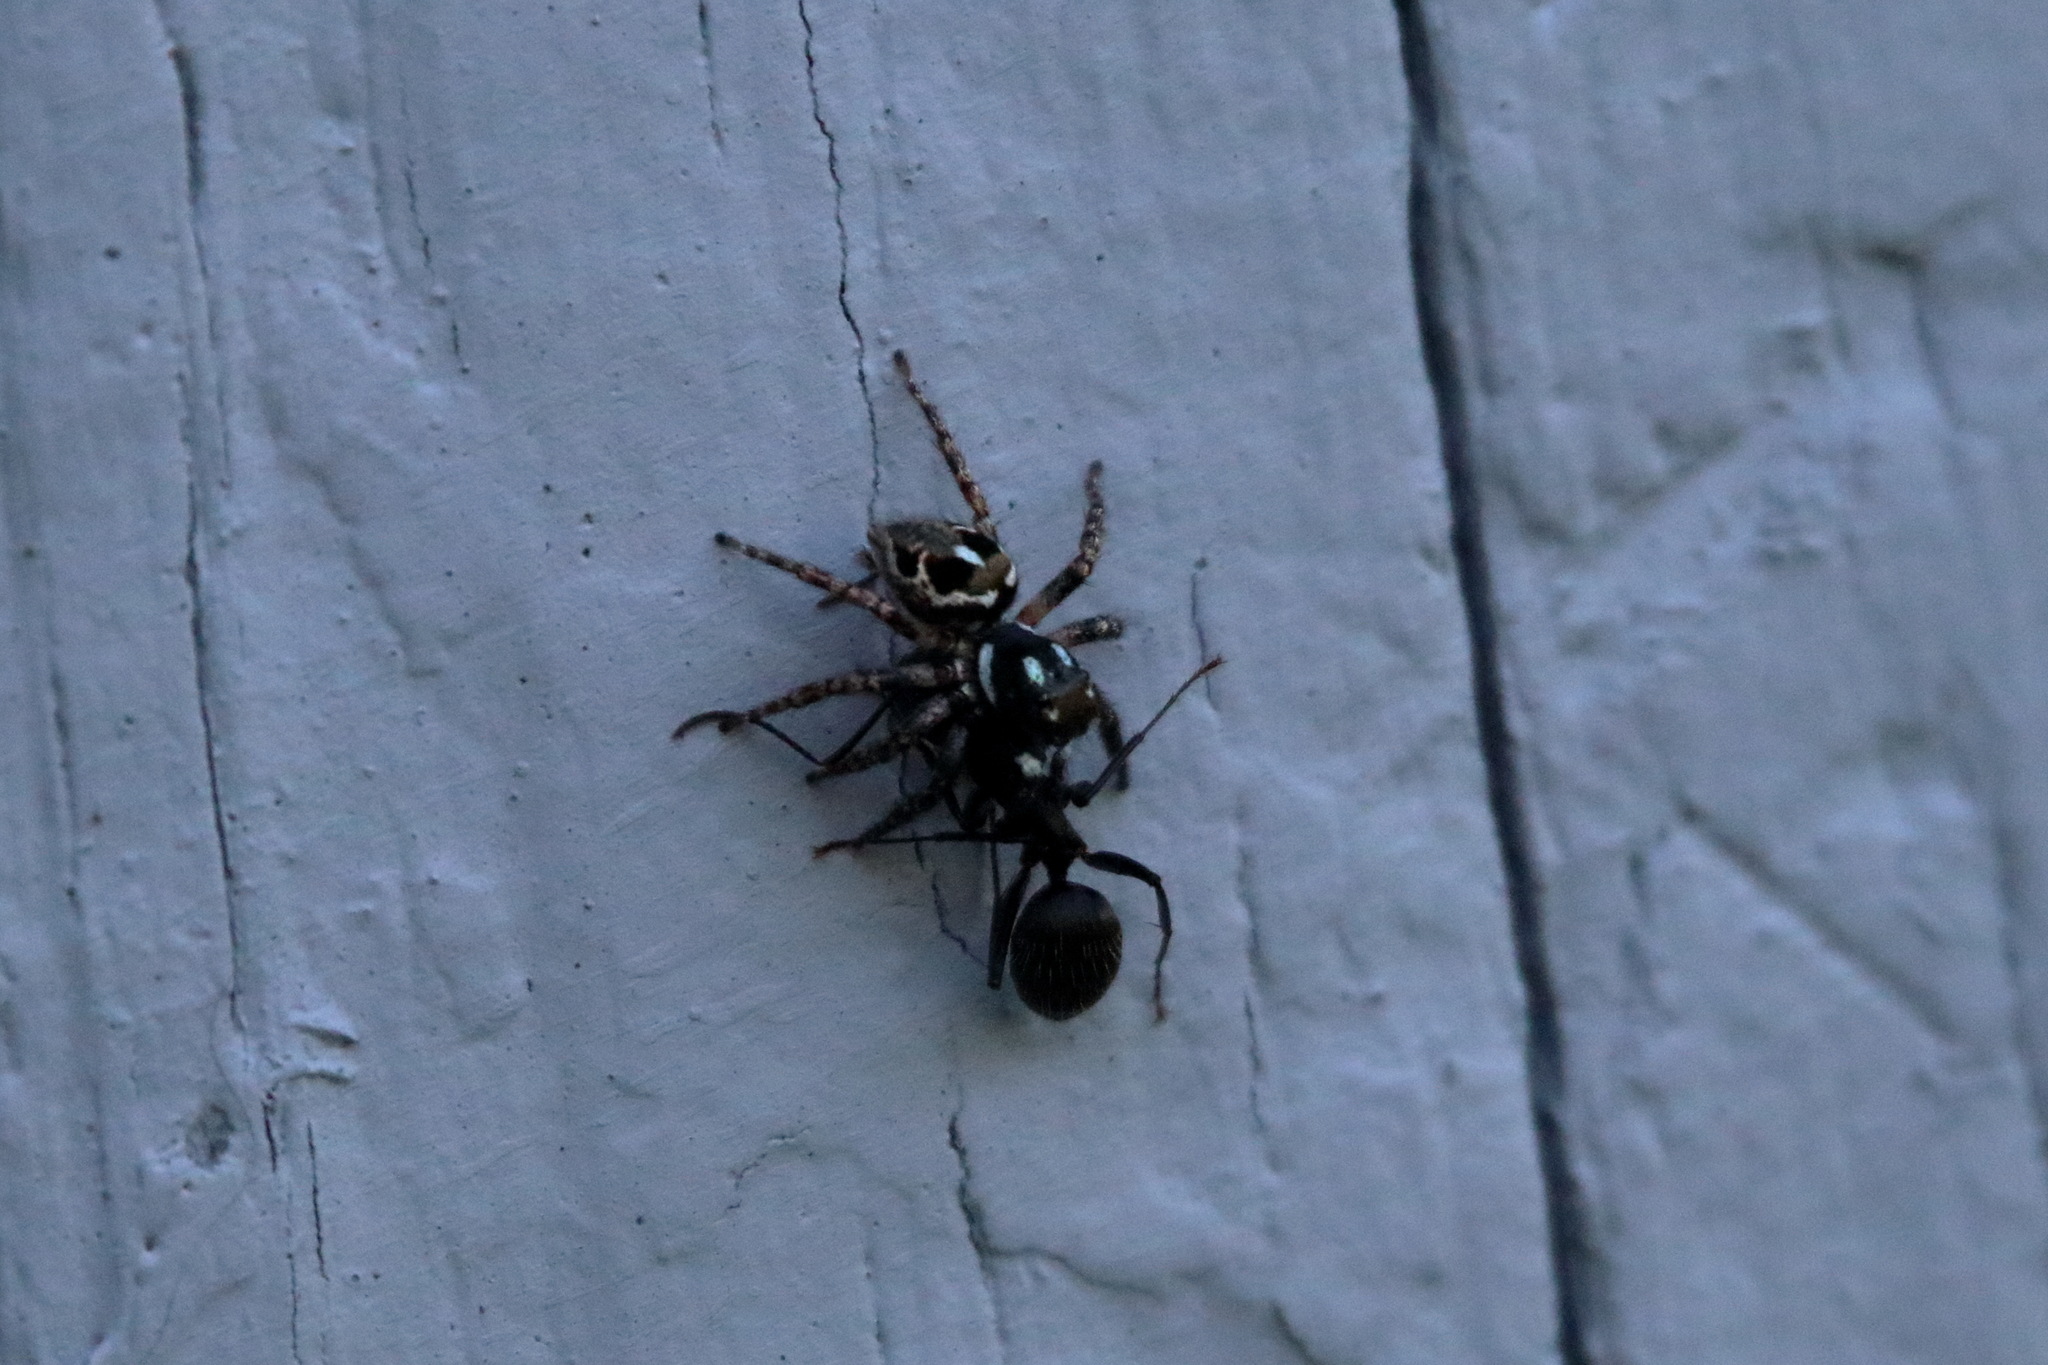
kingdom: Animalia
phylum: Arthropoda
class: Arachnida
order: Araneae
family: Salticidae
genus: Anasaitis
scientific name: Anasaitis canosa
